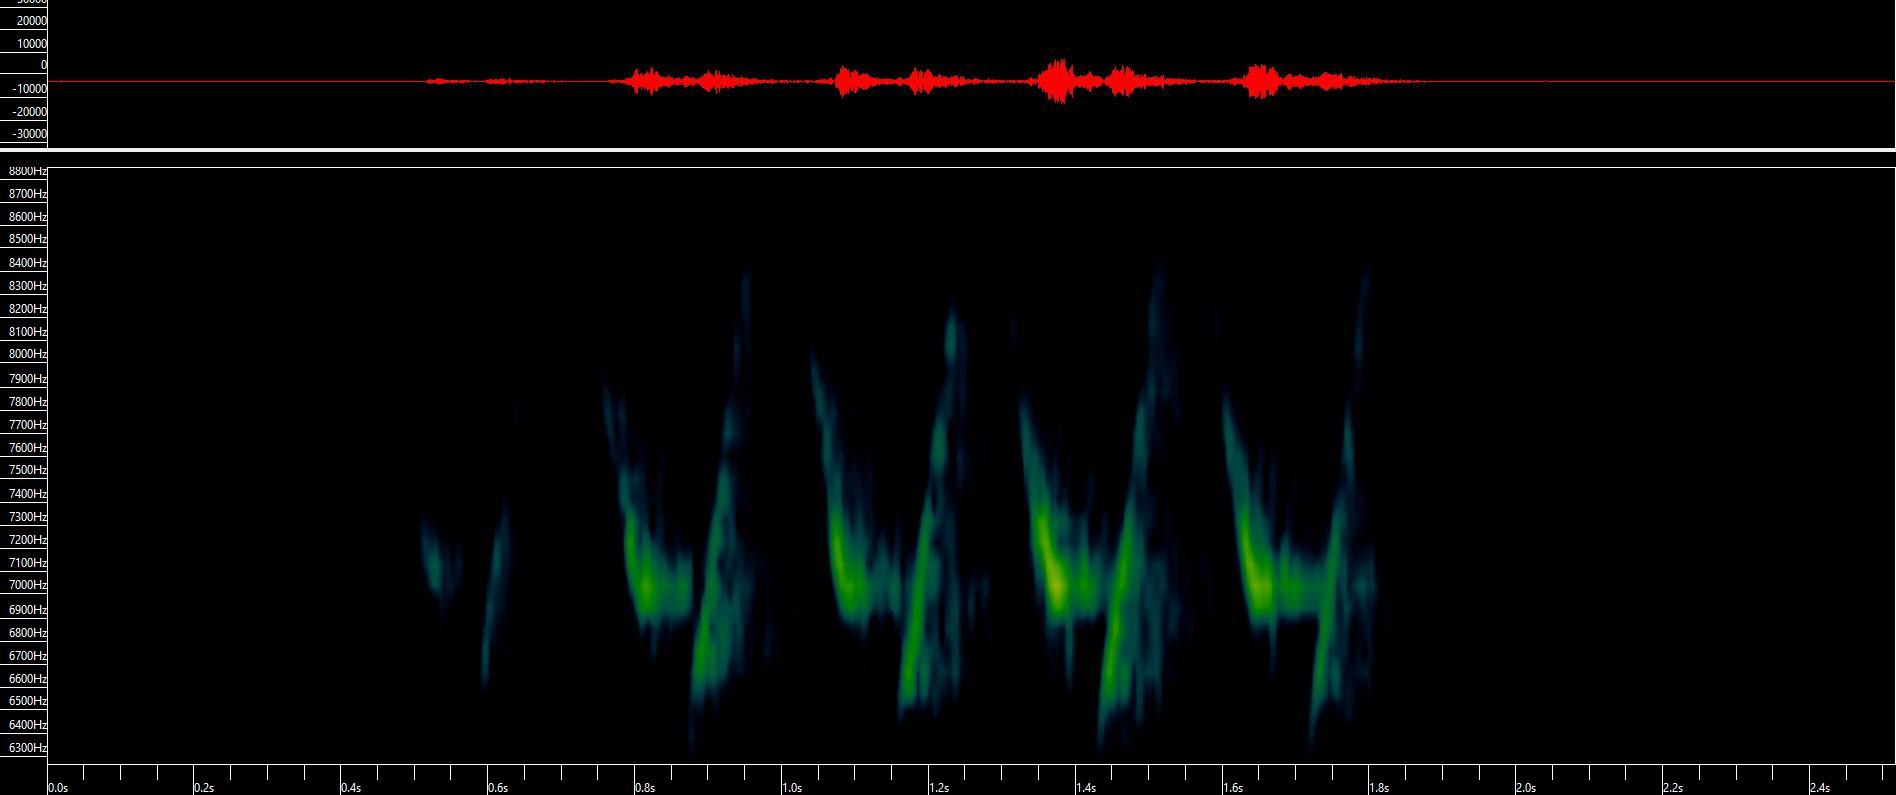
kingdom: Animalia
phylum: Chordata
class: Aves
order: Passeriformes
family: Parulidae
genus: Mniotilta
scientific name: Mniotilta varia
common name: Black-and-white warbler
